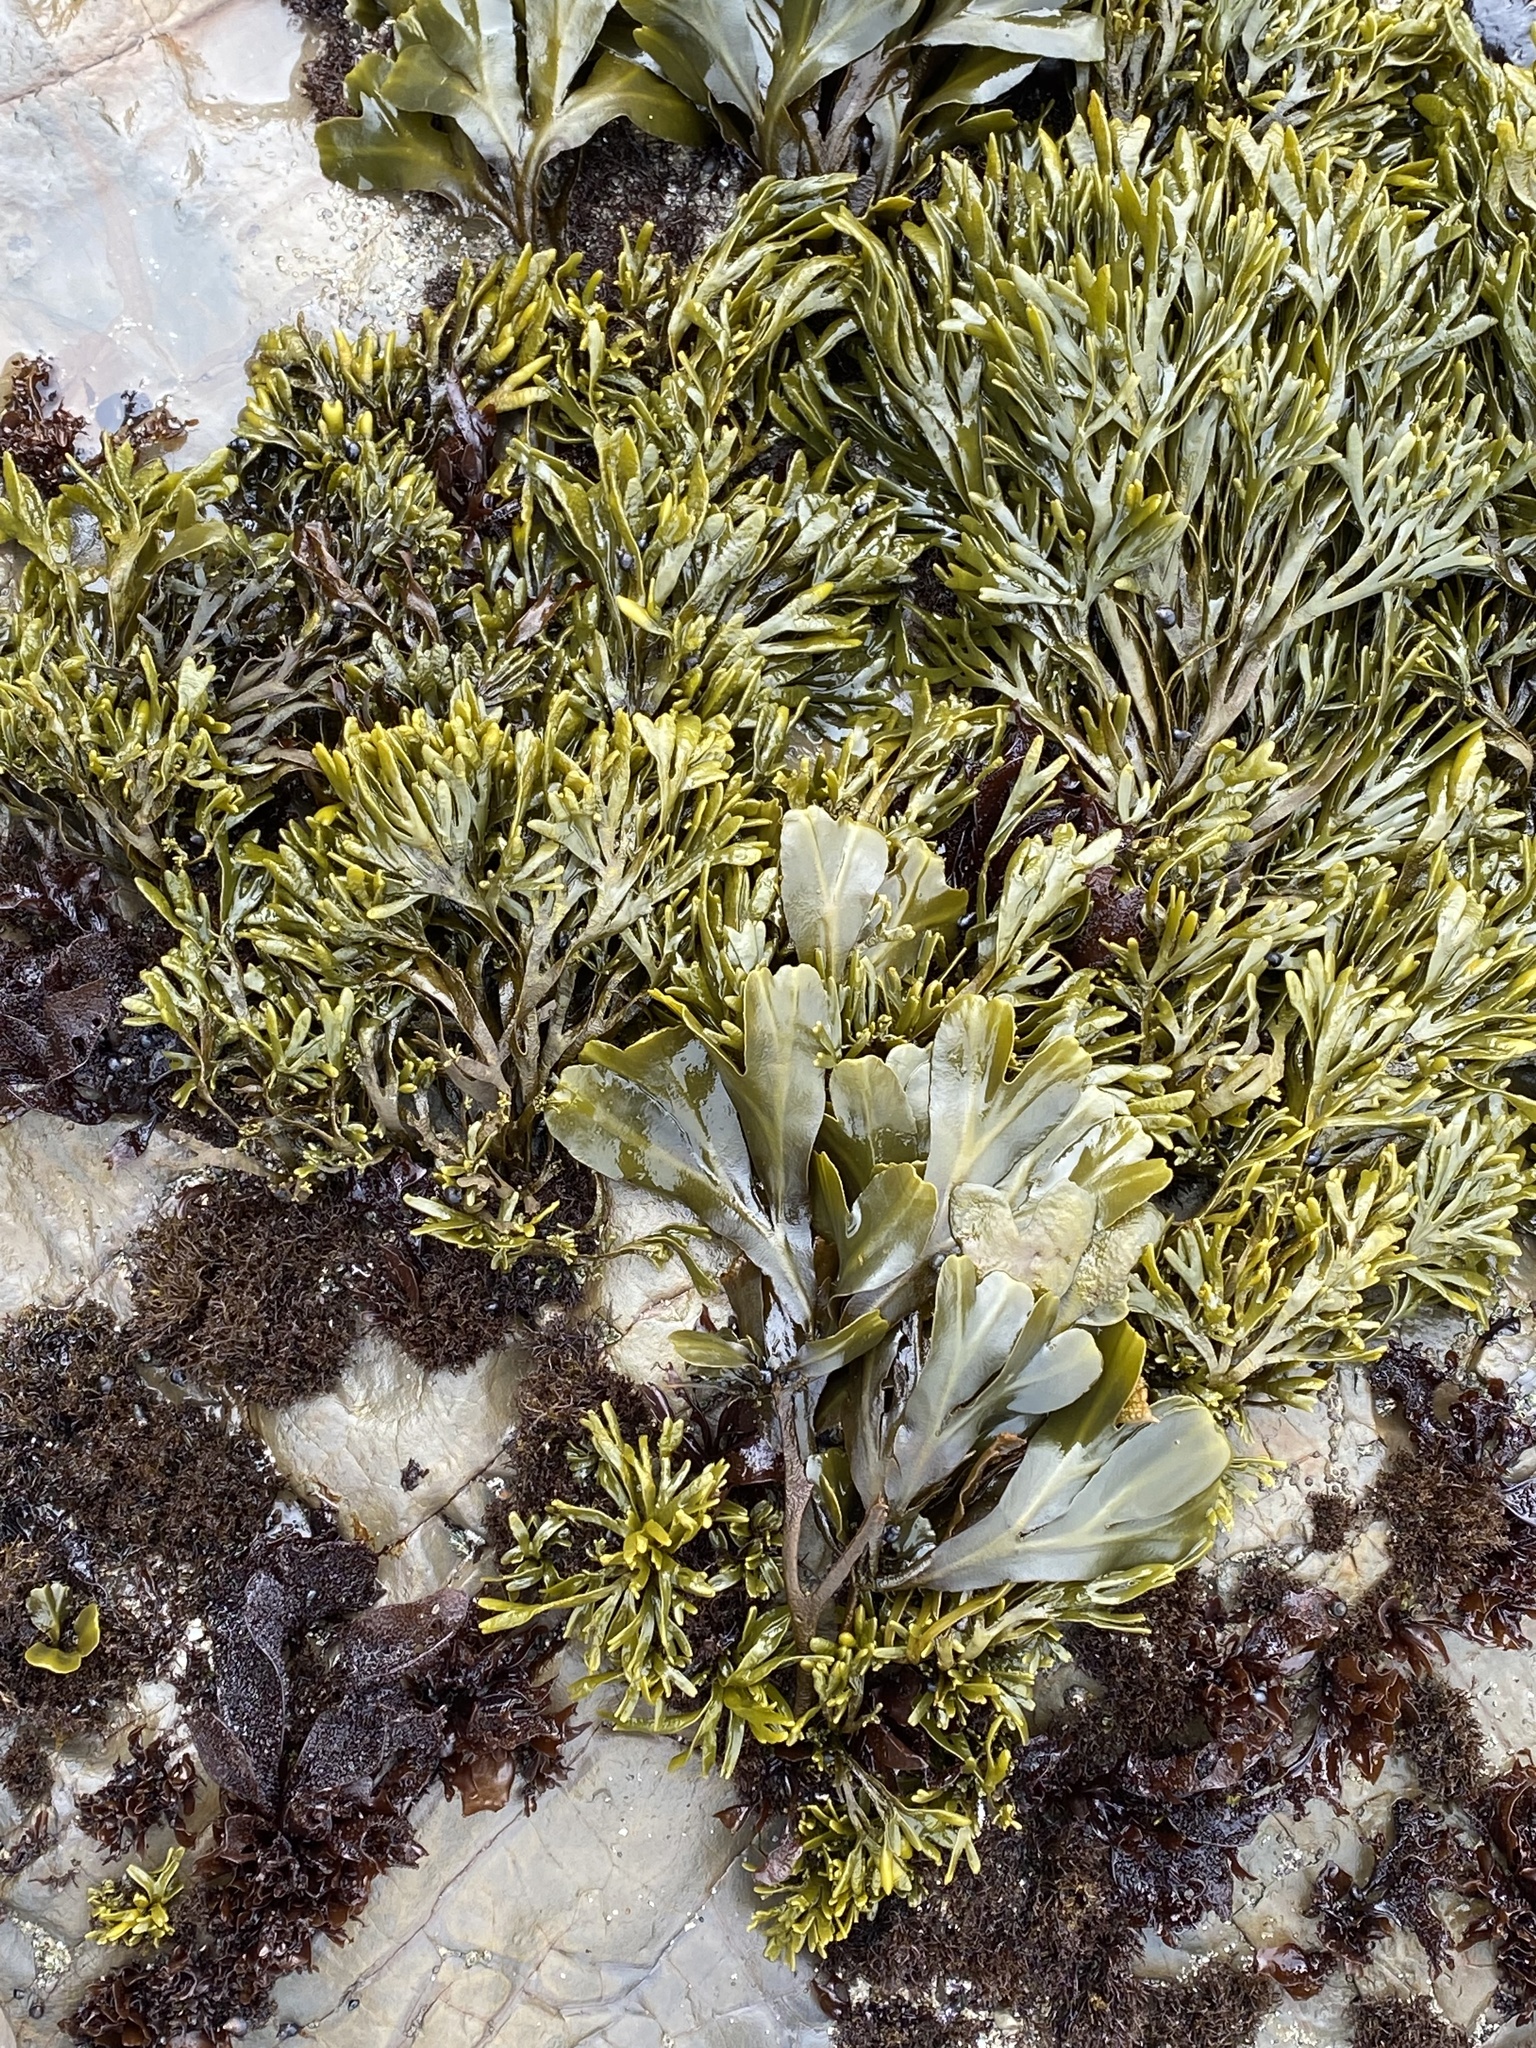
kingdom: Chromista
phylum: Ochrophyta
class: Phaeophyceae
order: Fucales
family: Fucaceae
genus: Pelvetiopsis
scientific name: Pelvetiopsis limitata
